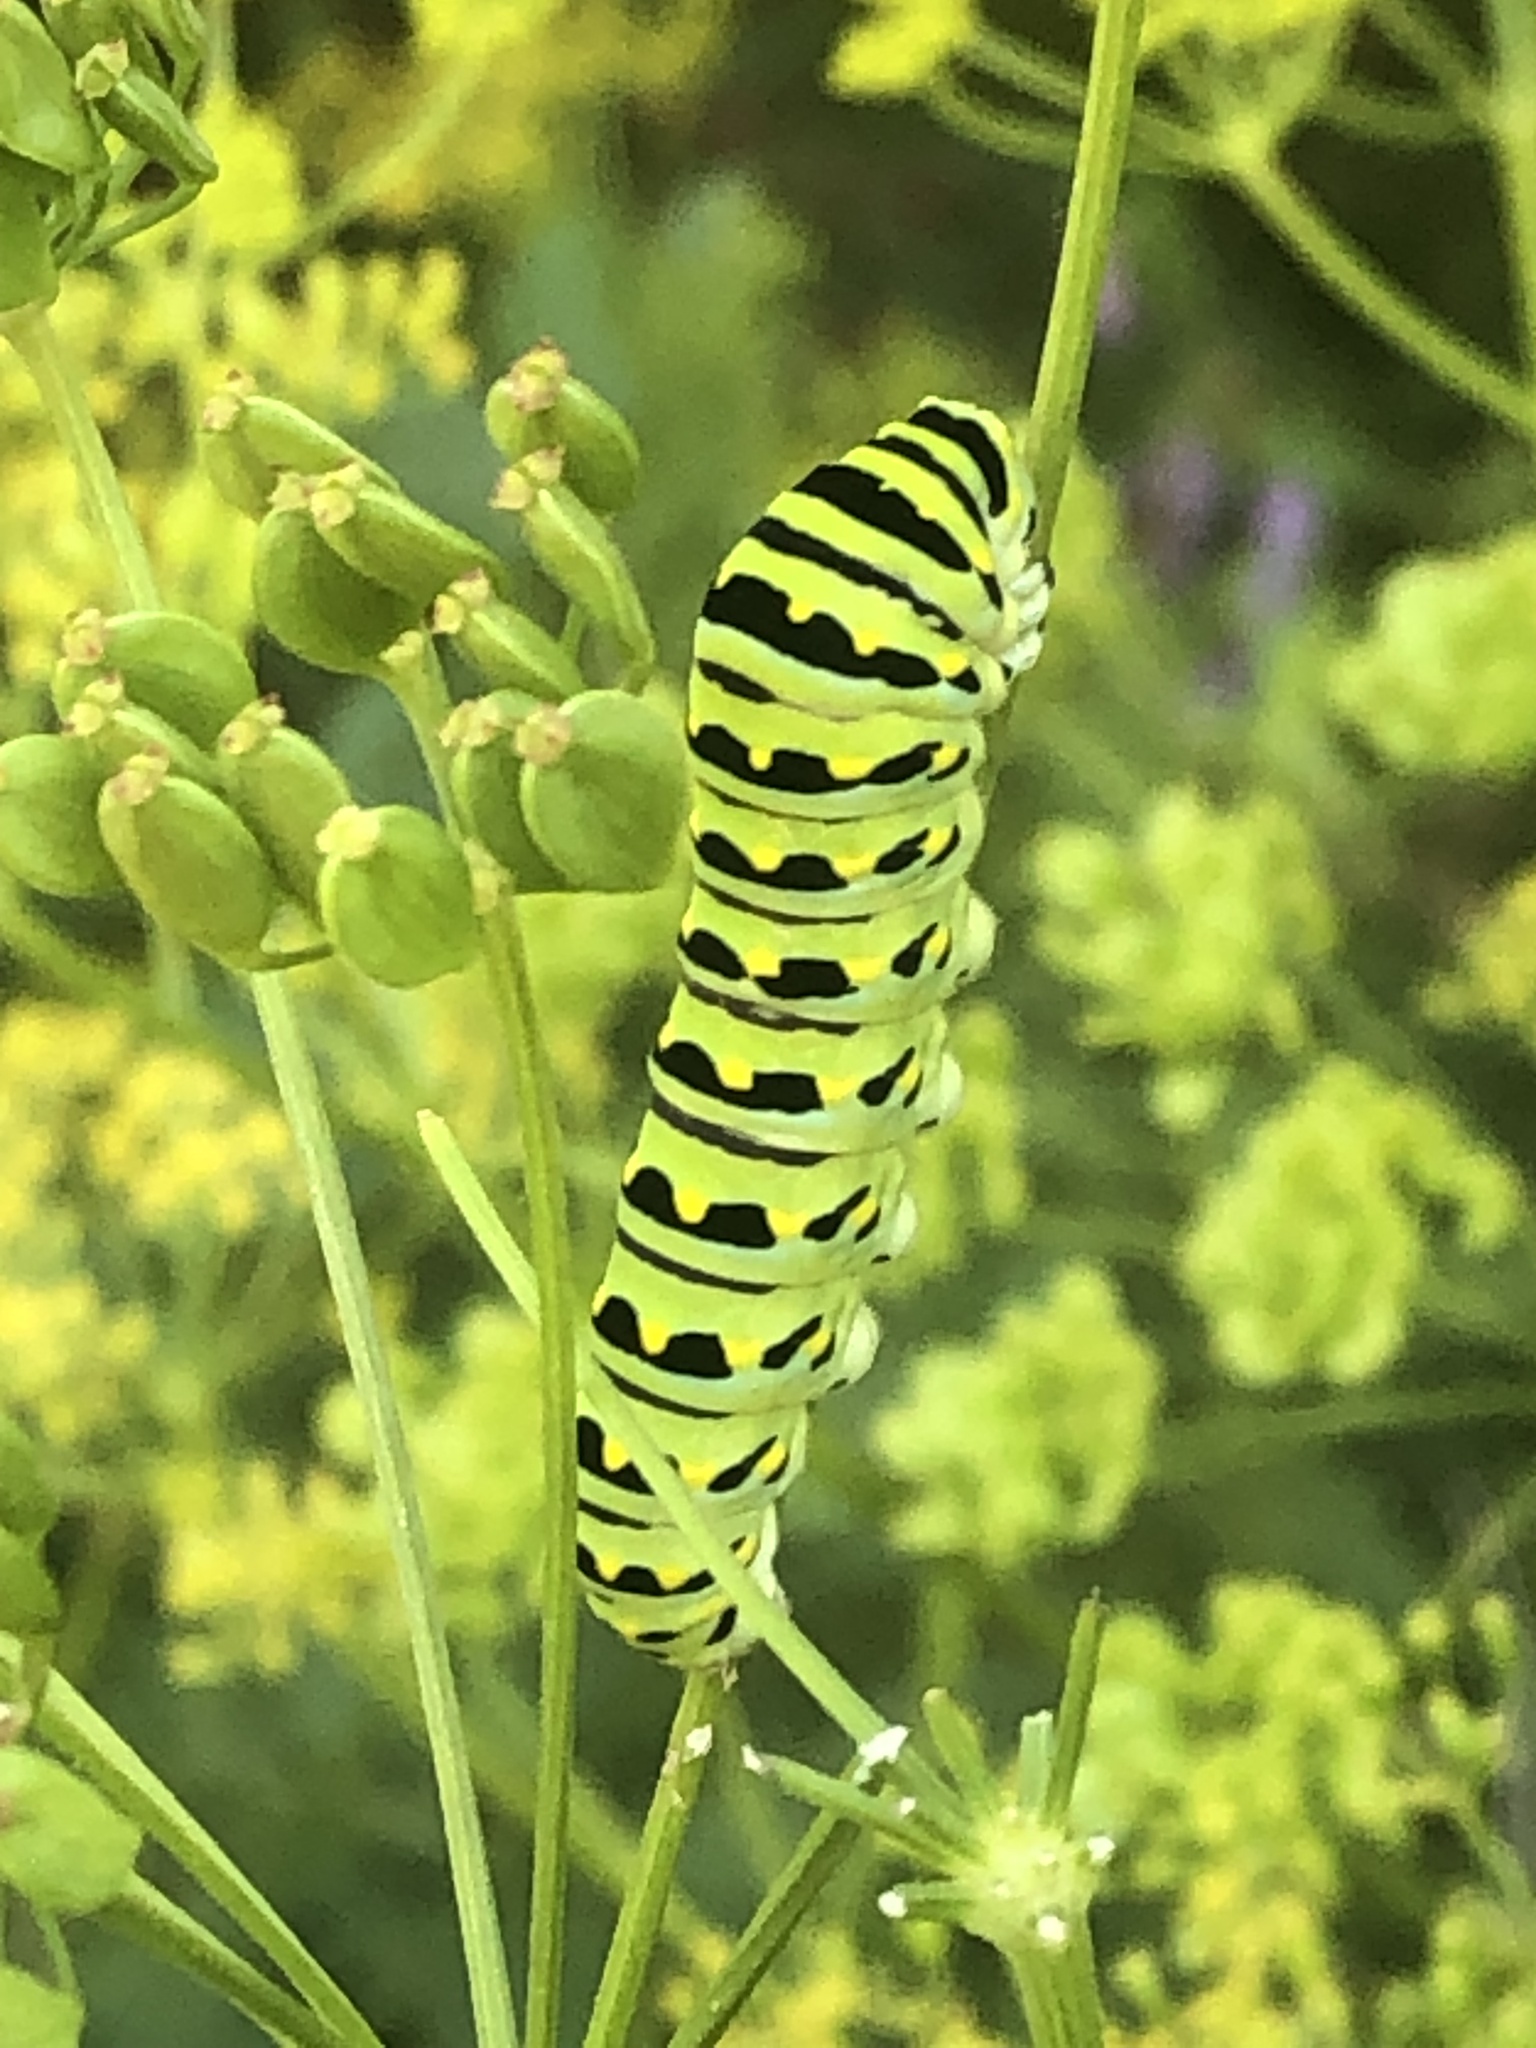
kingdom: Animalia
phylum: Arthropoda
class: Insecta
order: Lepidoptera
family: Papilionidae
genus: Papilio
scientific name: Papilio polyxenes
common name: Black swallowtail
